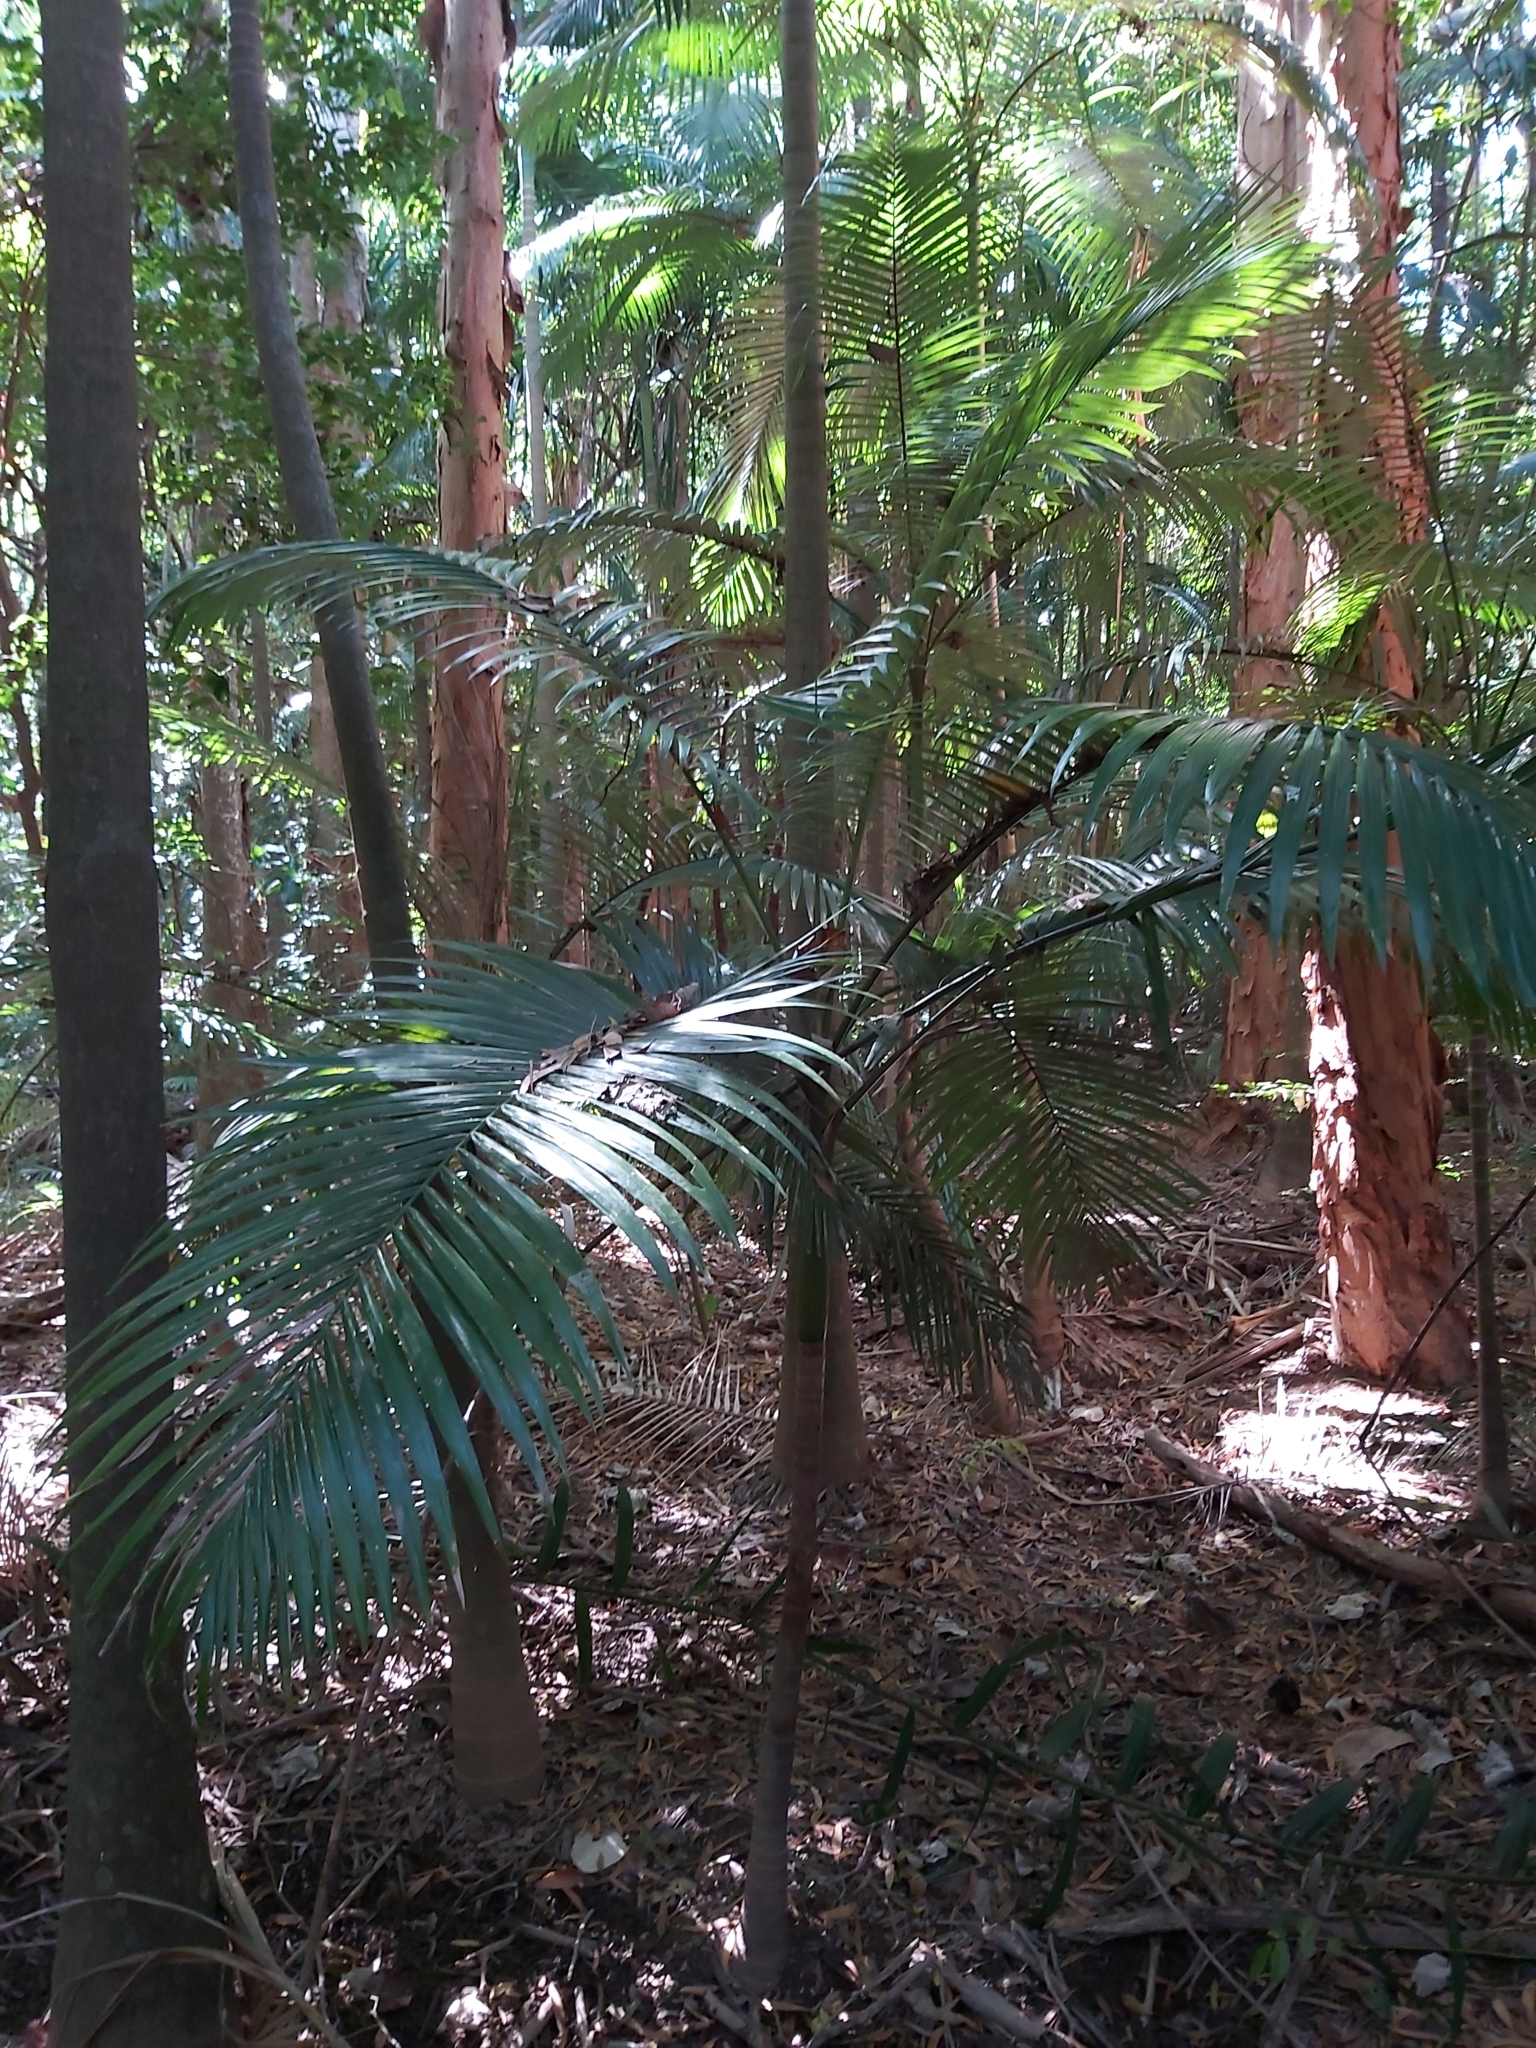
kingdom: Plantae
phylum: Tracheophyta
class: Liliopsida
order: Arecales
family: Arecaceae
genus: Archontophoenix
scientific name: Archontophoenix alexandrae
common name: Alexandra palm
